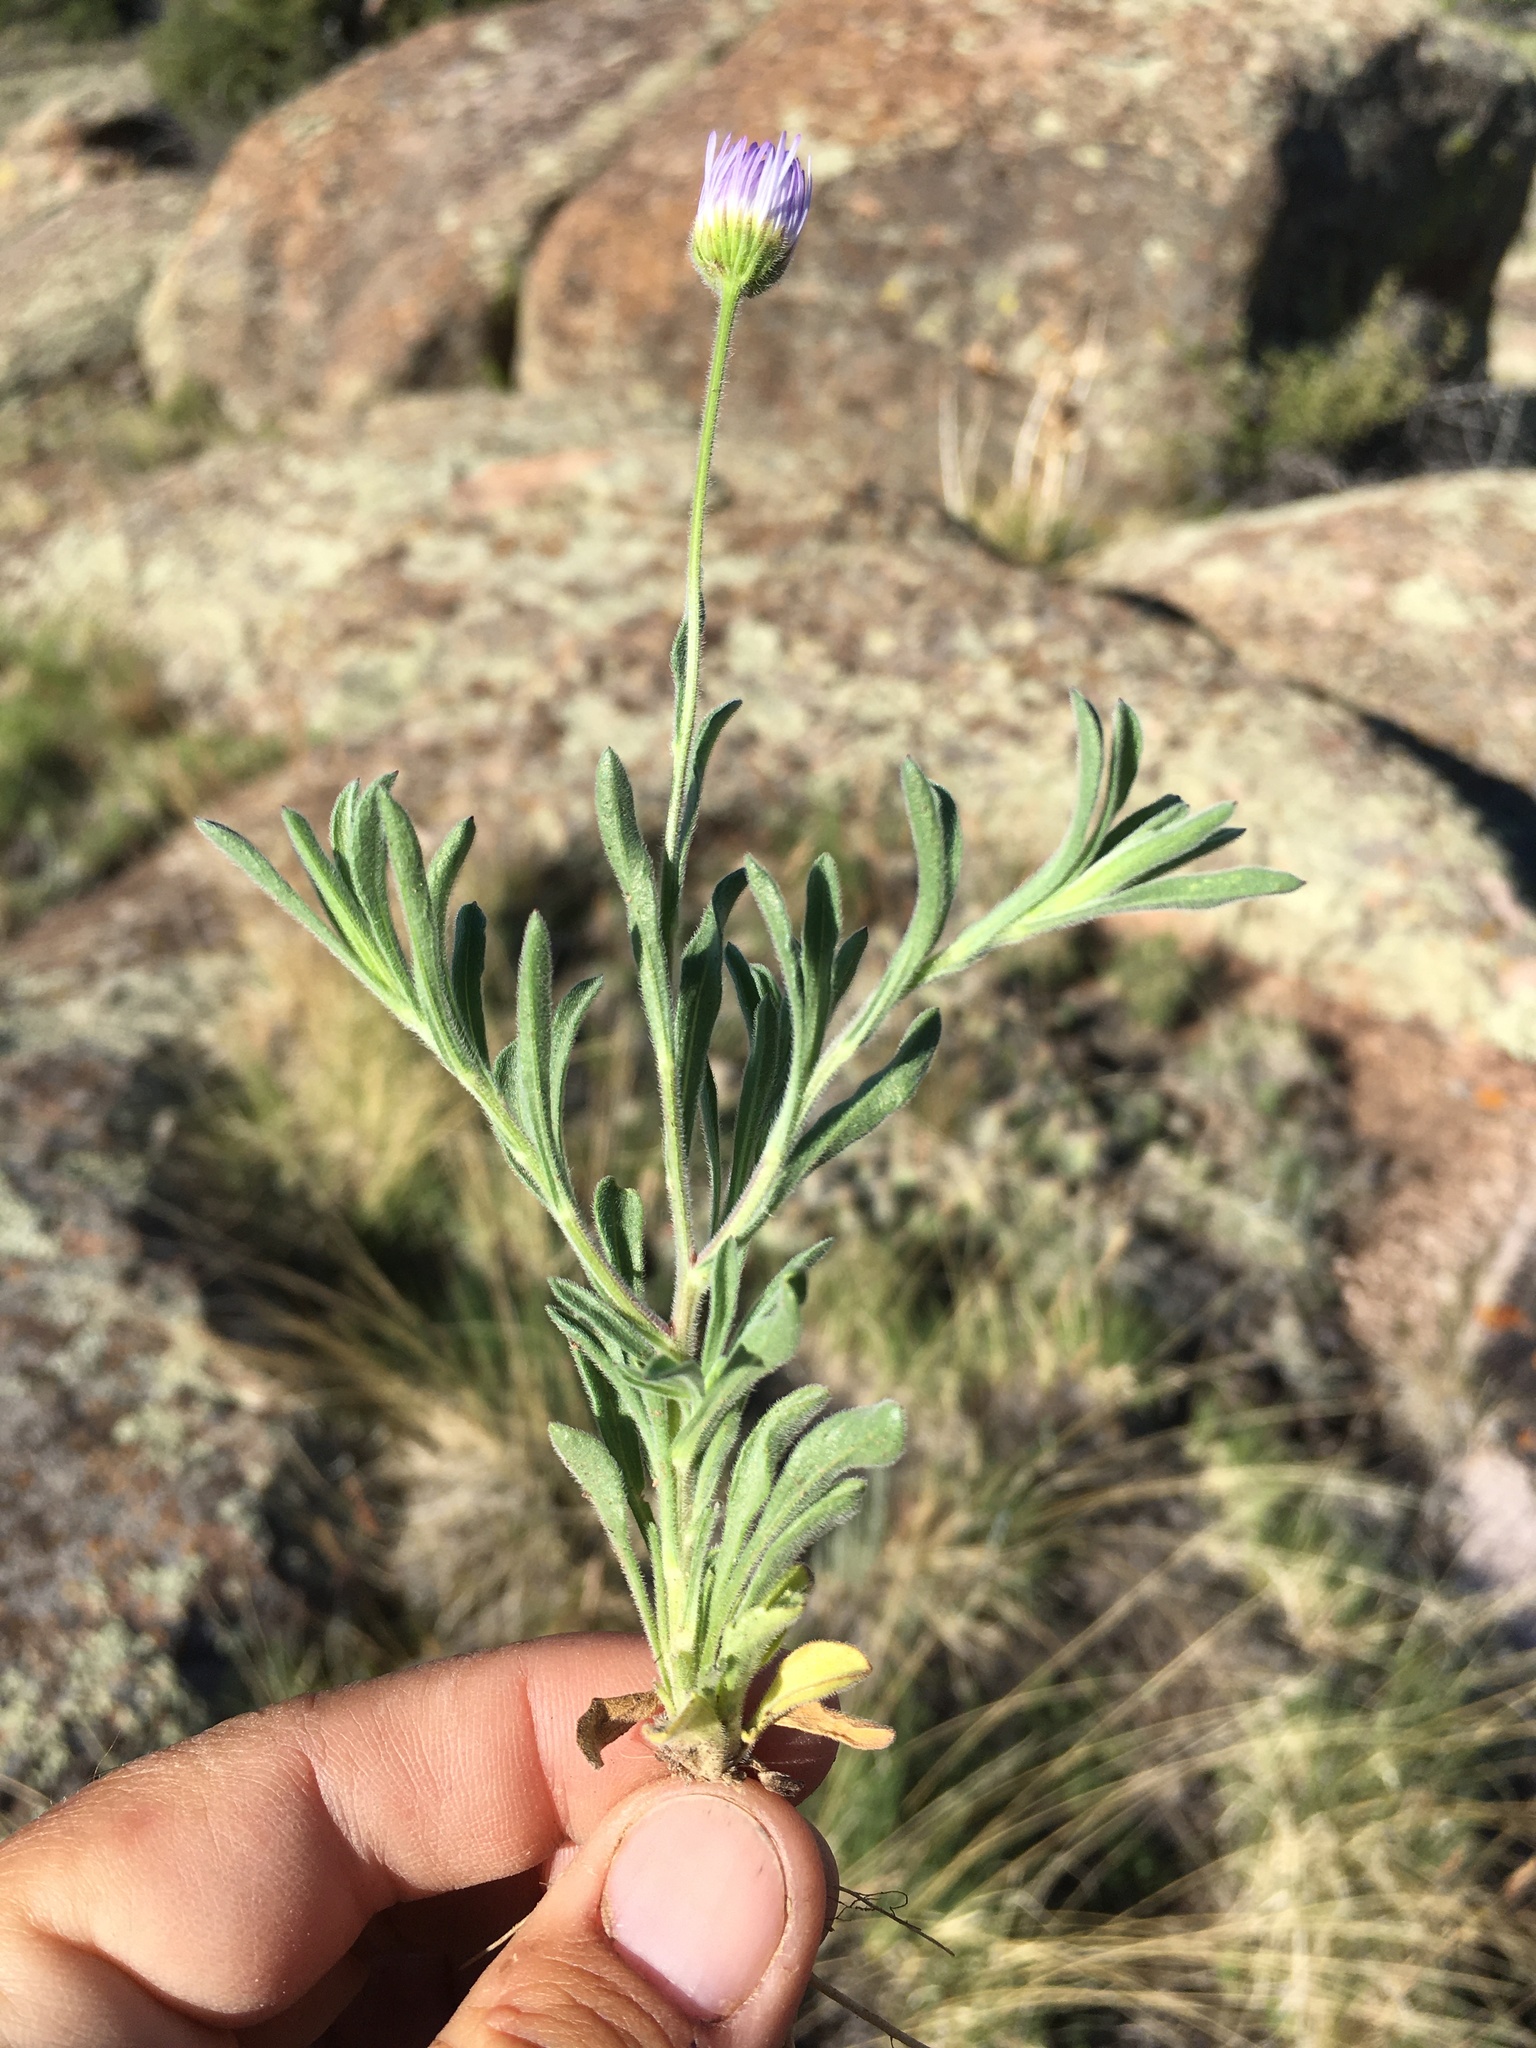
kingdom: Plantae
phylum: Tracheophyta
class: Magnoliopsida
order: Asterales
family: Asteraceae
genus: Erigeron
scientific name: Erigeron bellidiastrum
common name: Sand fleabane
